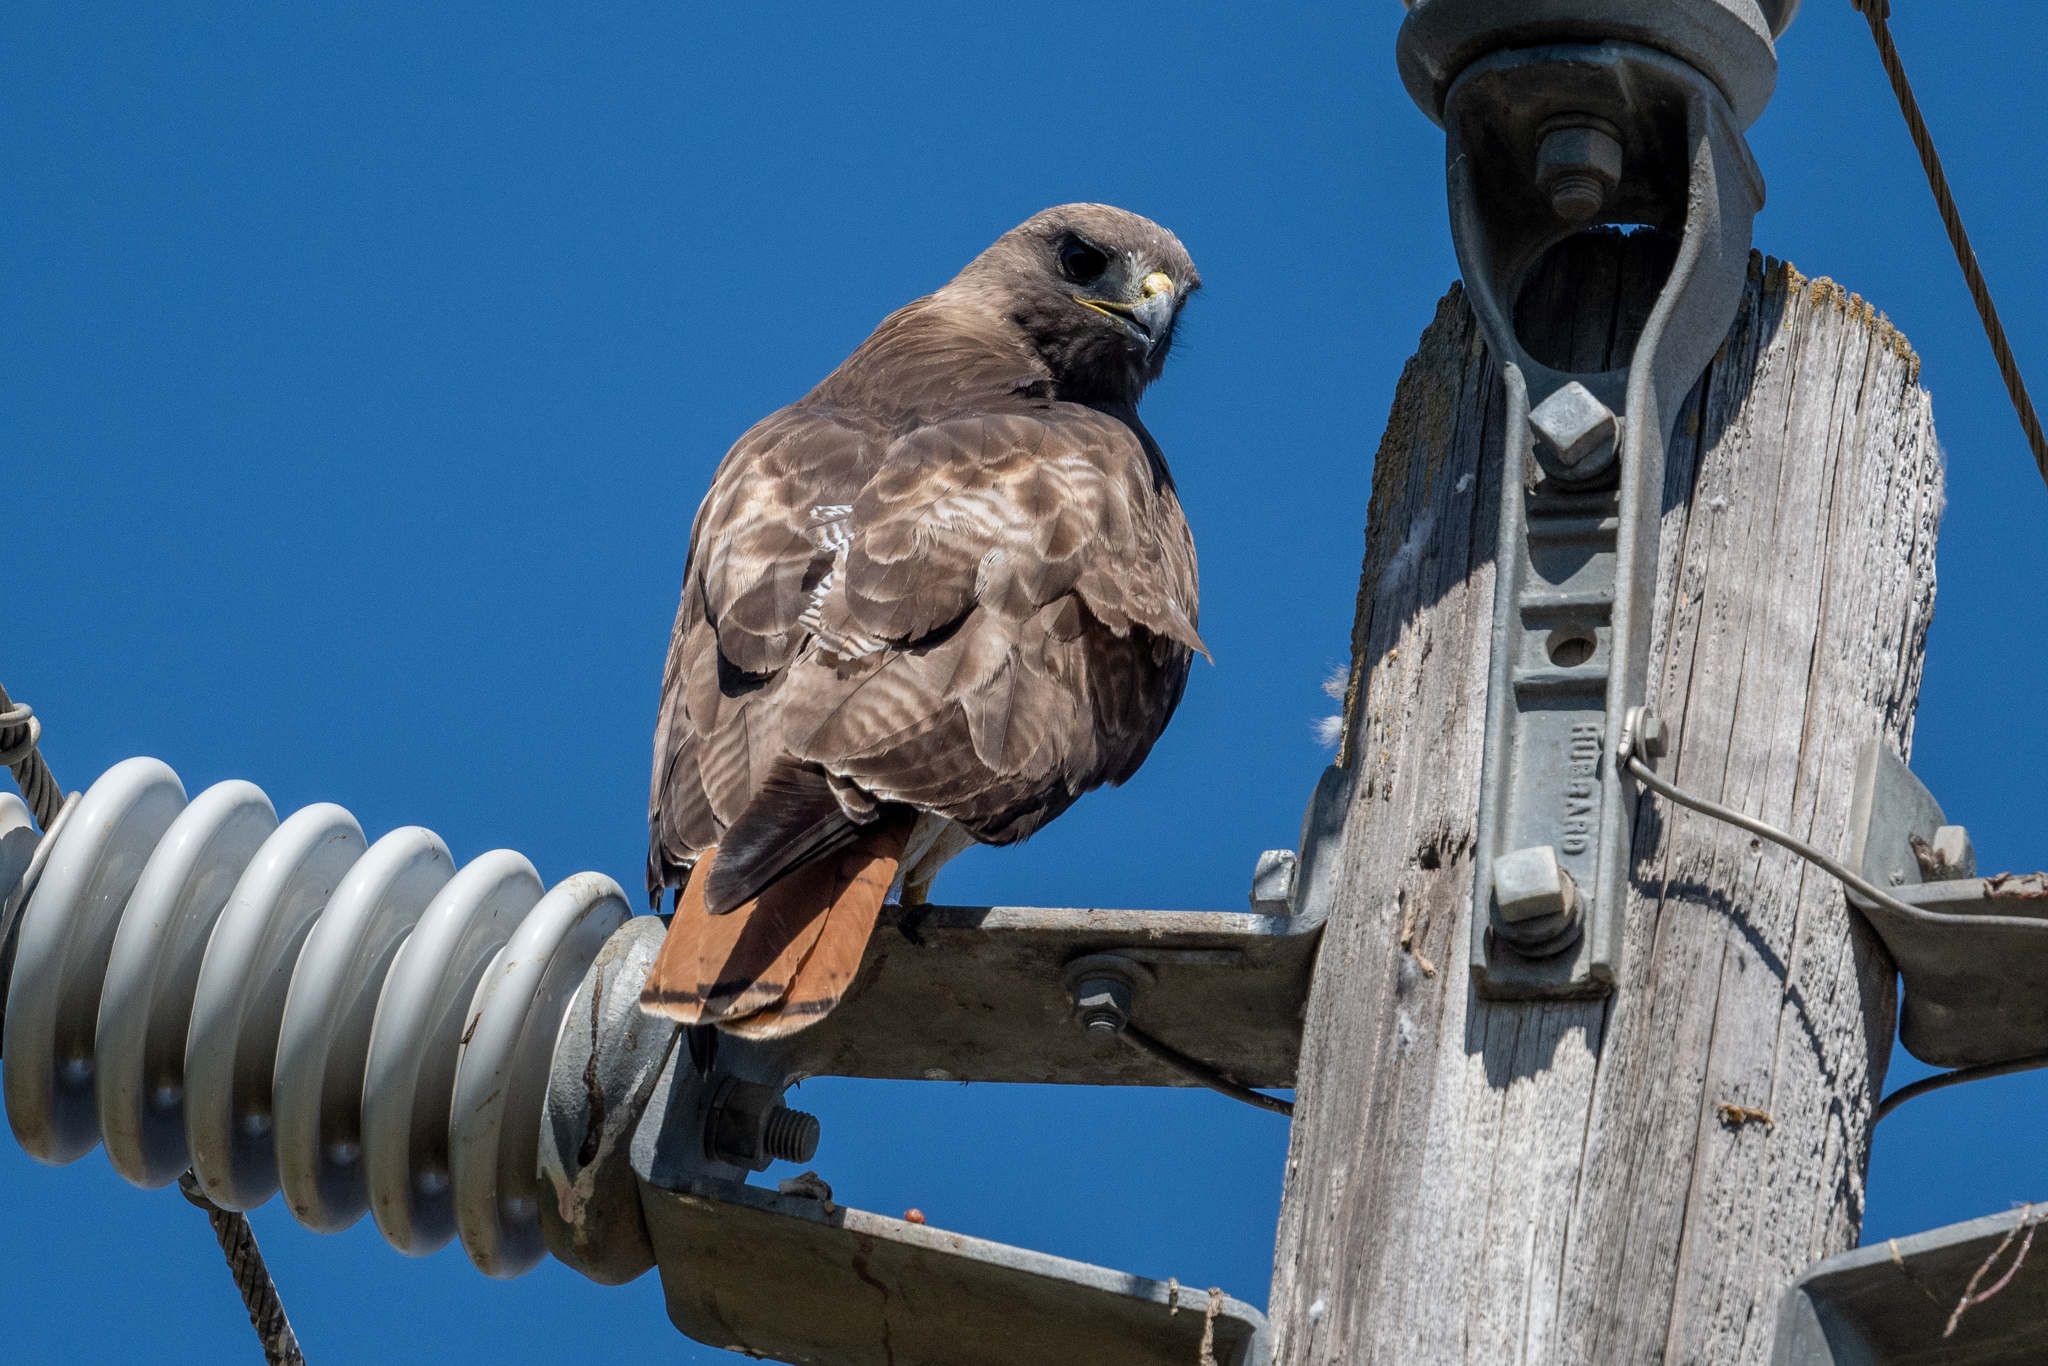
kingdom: Animalia
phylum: Chordata
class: Aves
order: Accipitriformes
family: Accipitridae
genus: Buteo
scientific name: Buteo jamaicensis
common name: Red-tailed hawk
